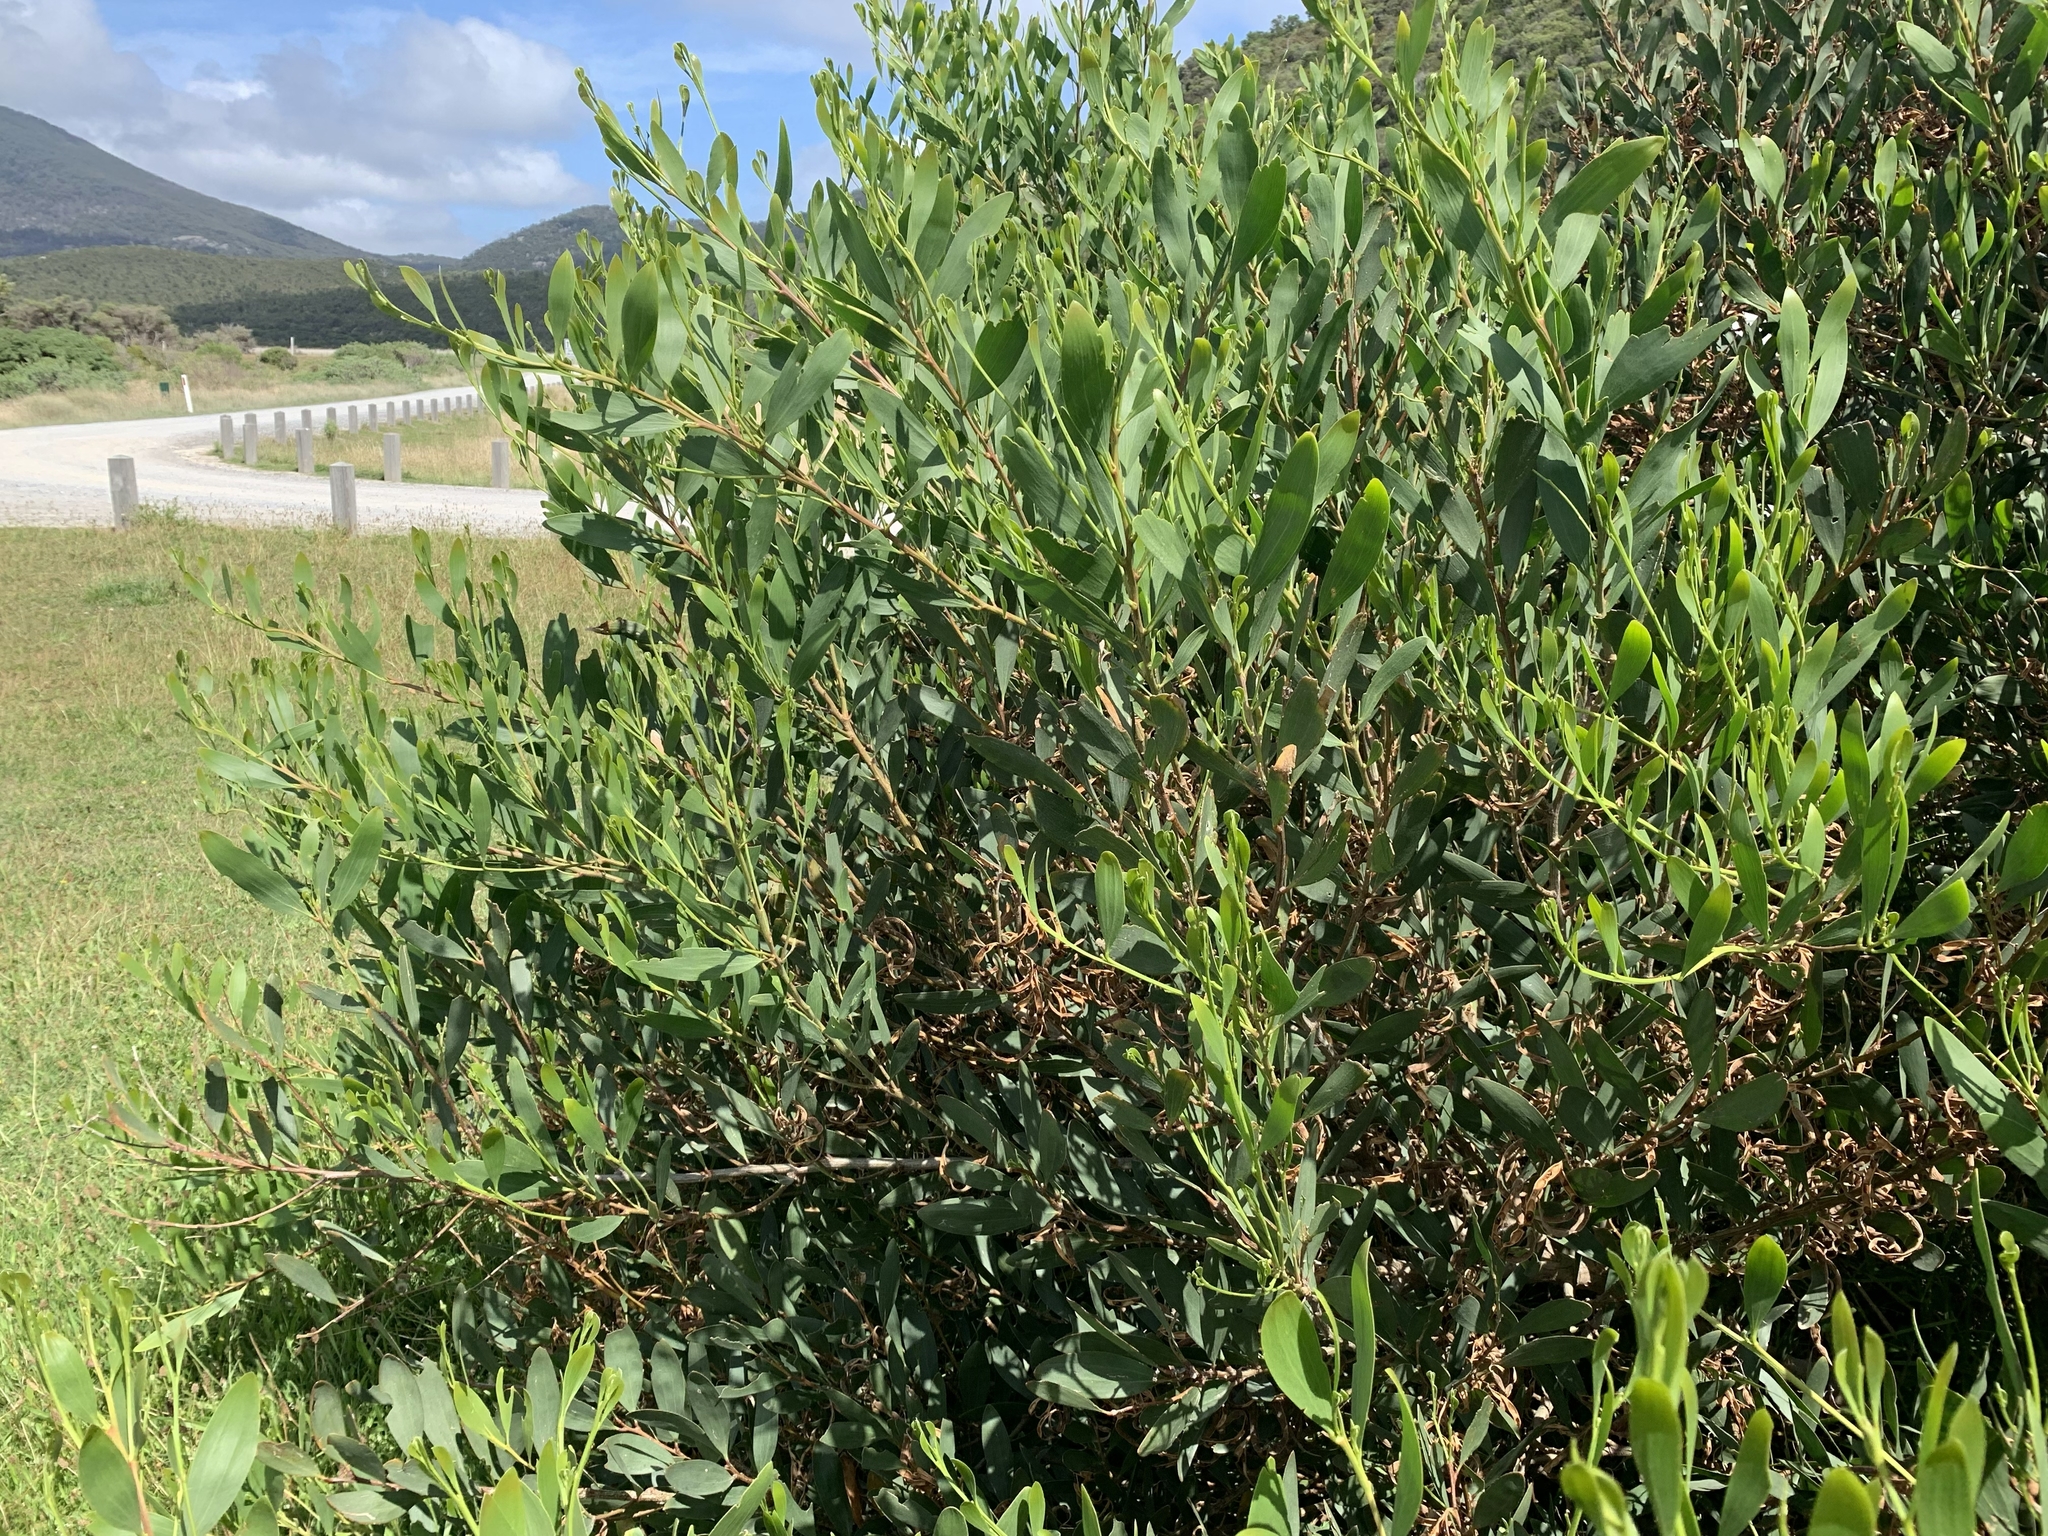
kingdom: Plantae
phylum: Tracheophyta
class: Magnoliopsida
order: Fabales
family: Fabaceae
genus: Acacia
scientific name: Acacia longifolia
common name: Sydney golden wattle
